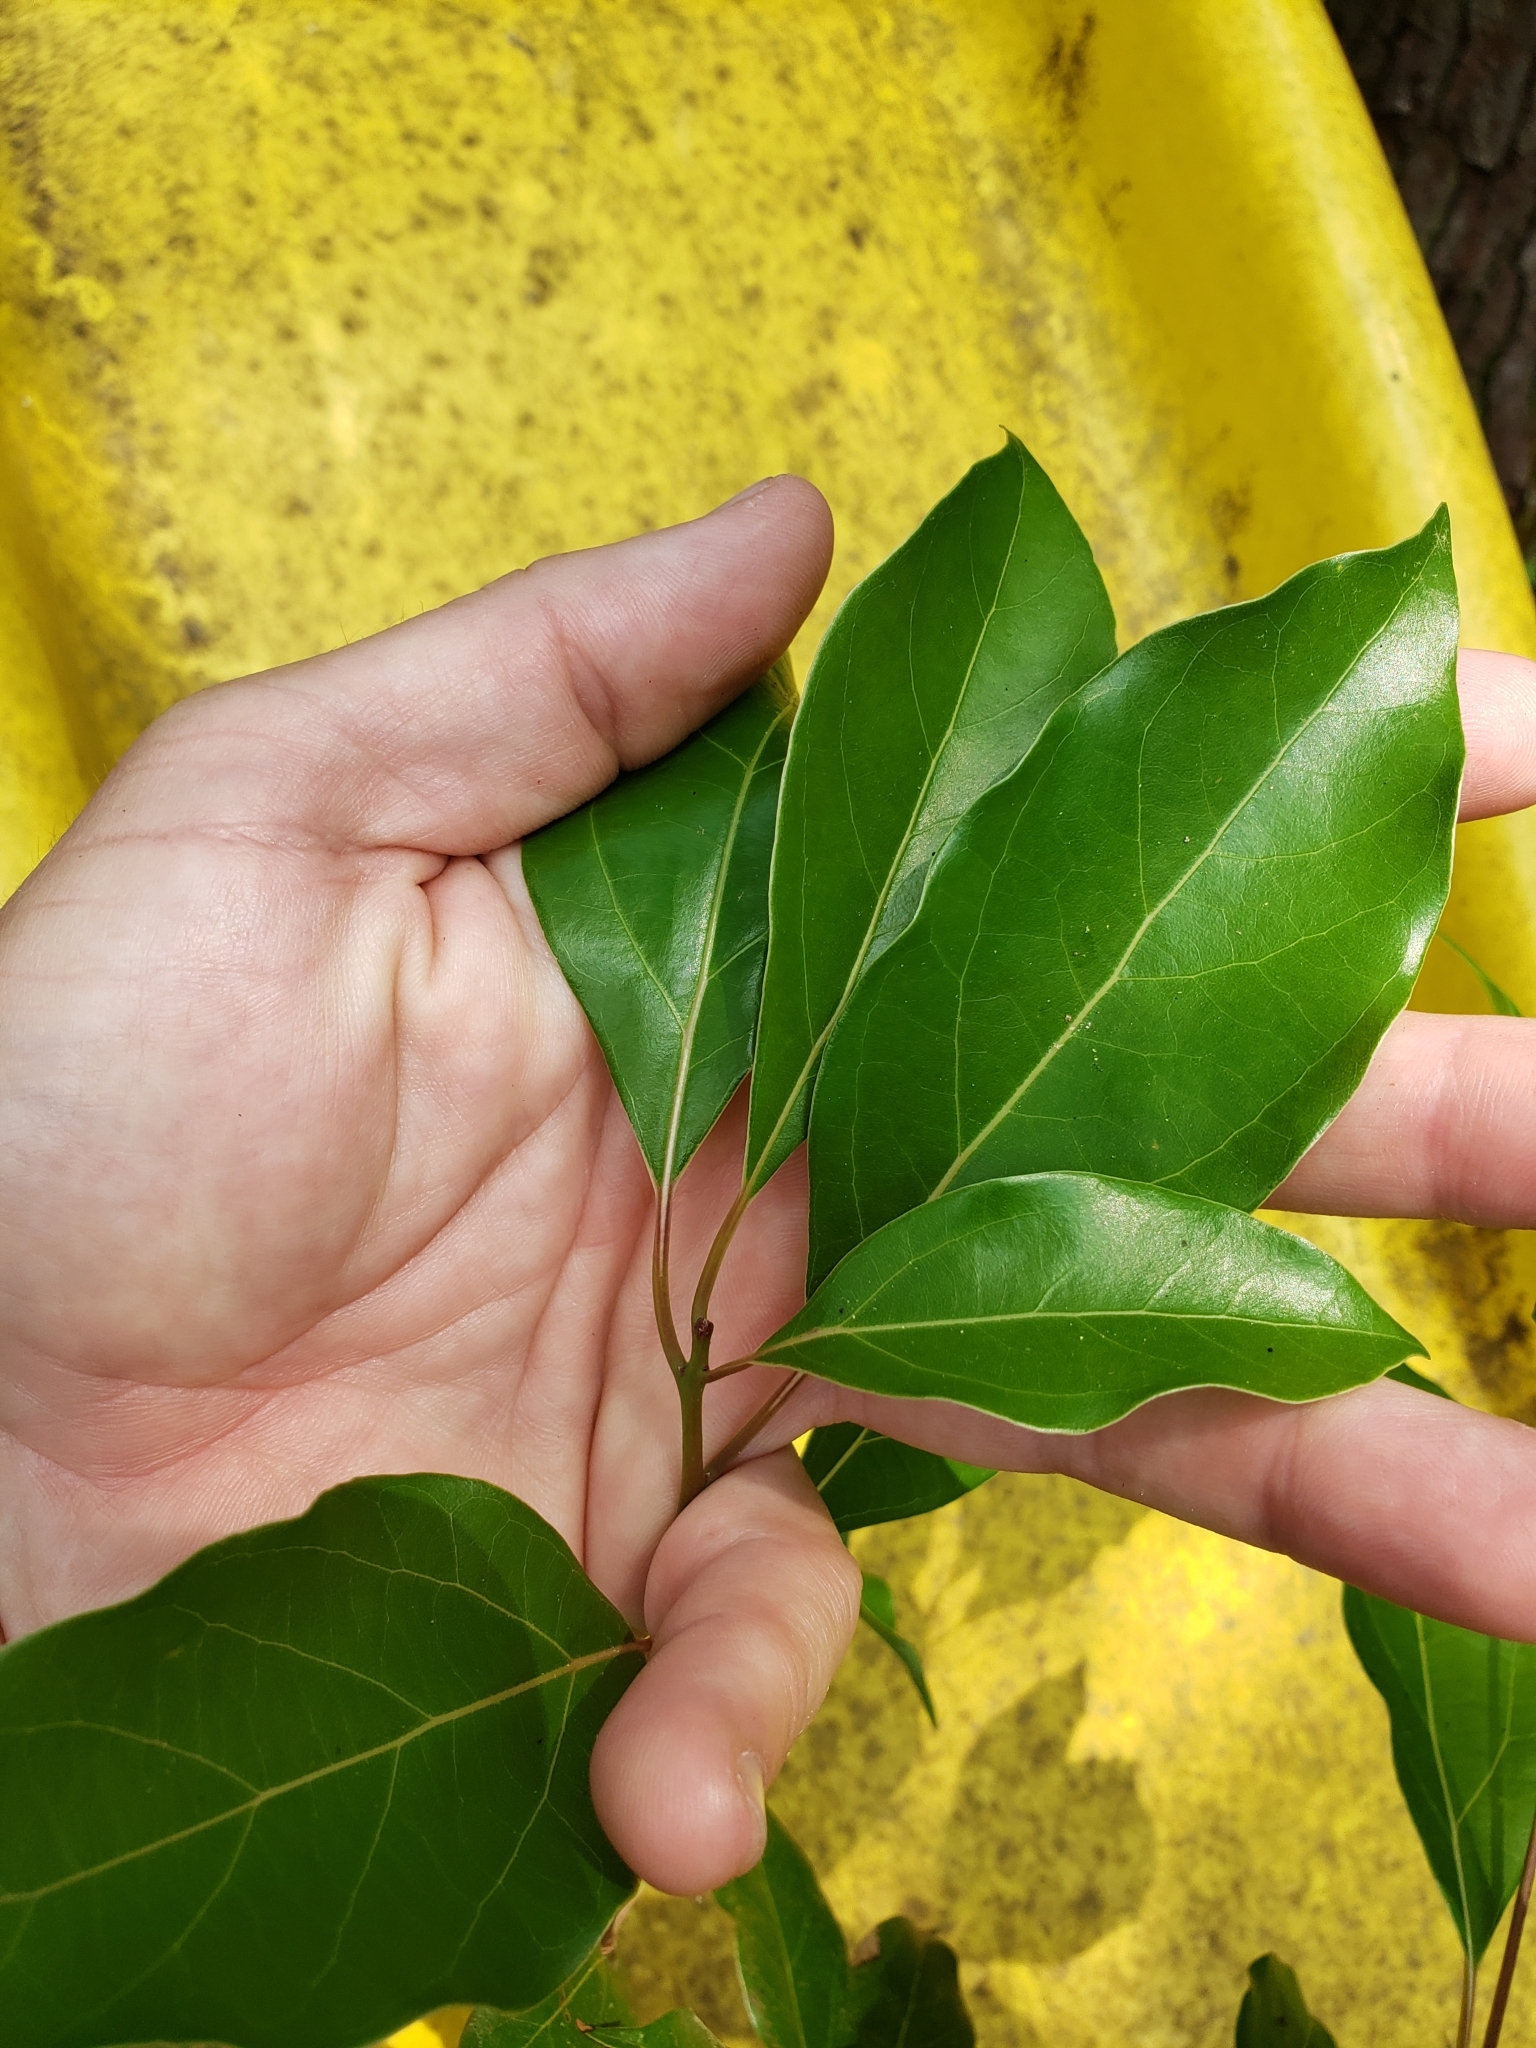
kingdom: Plantae
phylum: Tracheophyta
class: Magnoliopsida
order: Laurales
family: Lauraceae
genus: Cinnamomum
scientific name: Cinnamomum camphora
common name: Camphortree
